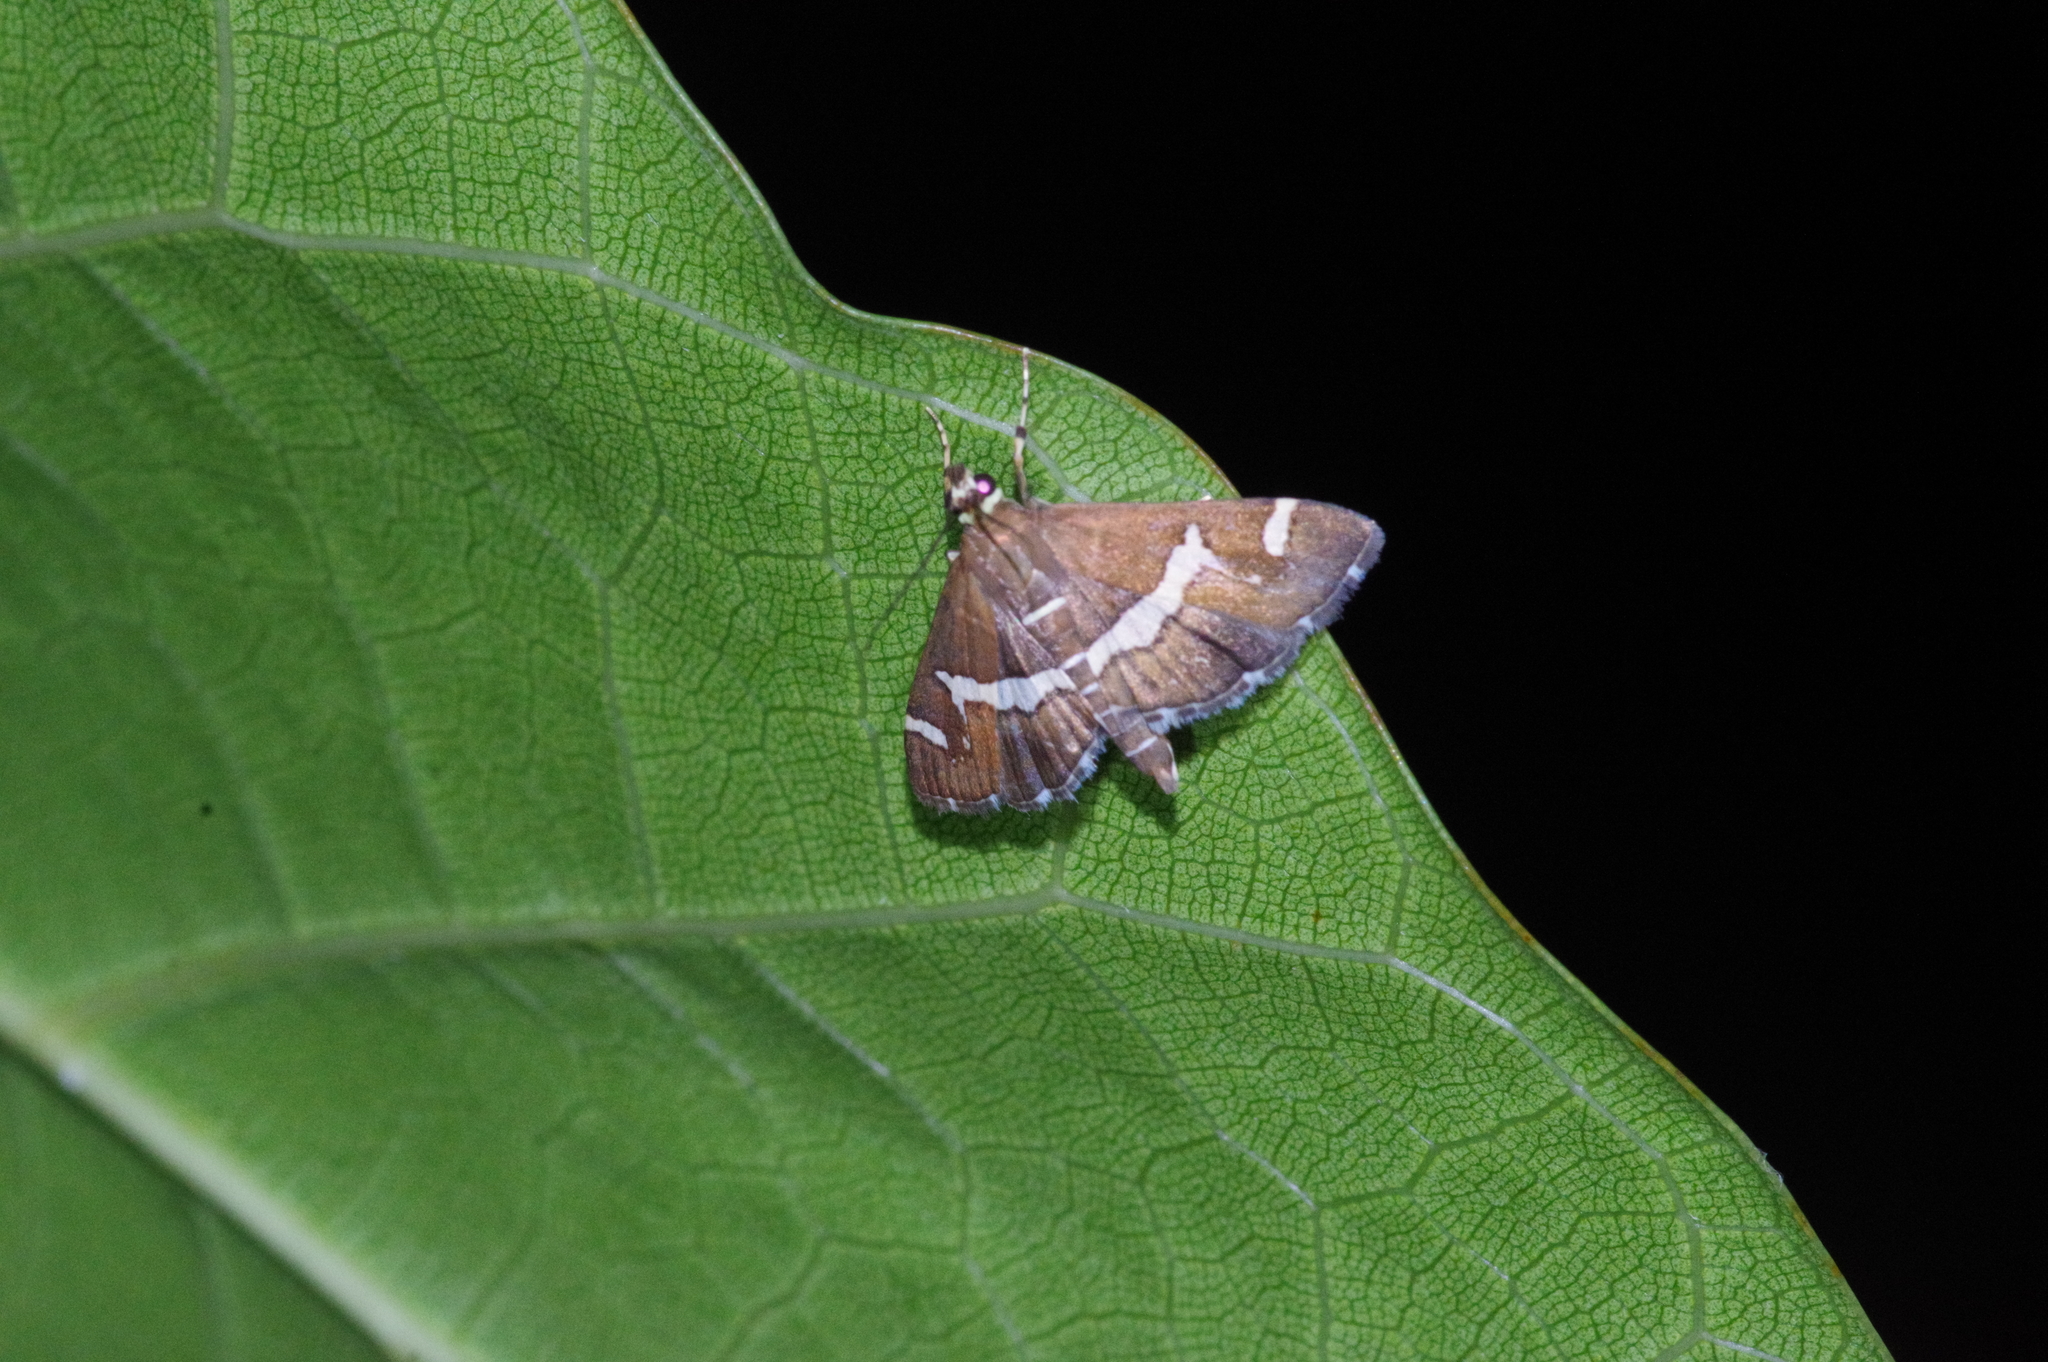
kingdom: Animalia
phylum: Arthropoda
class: Insecta
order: Lepidoptera
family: Crambidae
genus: Spoladea
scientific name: Spoladea recurvalis
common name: Beet webworm moth
